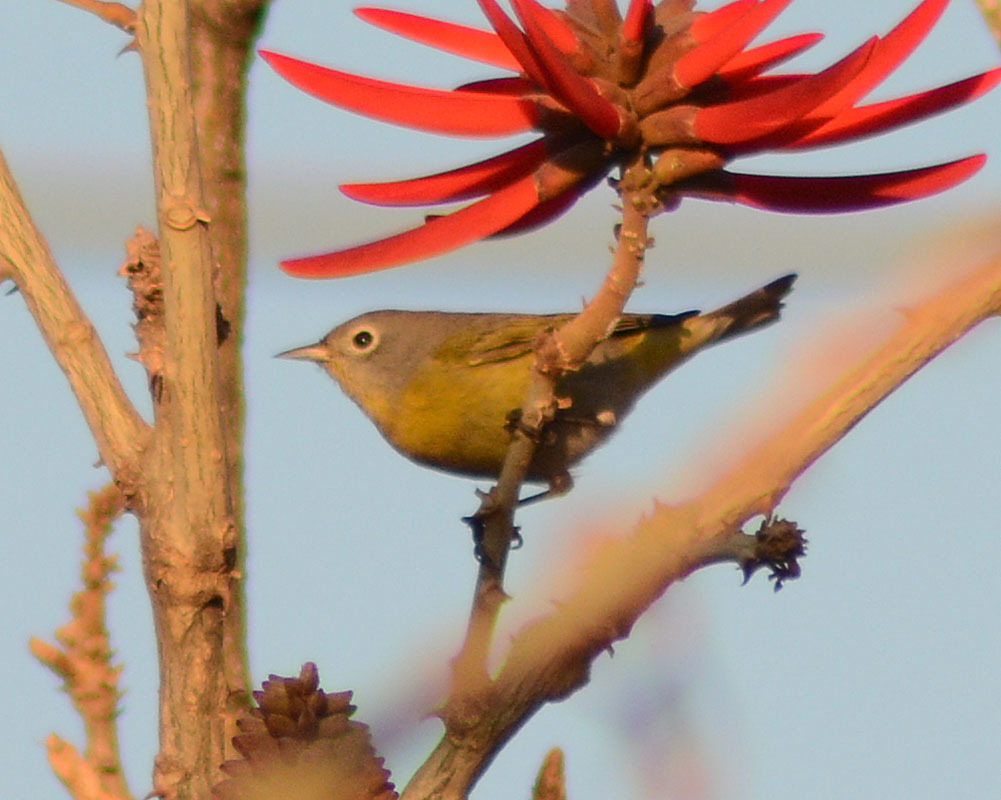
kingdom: Animalia
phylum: Chordata
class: Aves
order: Passeriformes
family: Parulidae
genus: Leiothlypis
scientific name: Leiothlypis ruficapilla
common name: Nashville warbler
